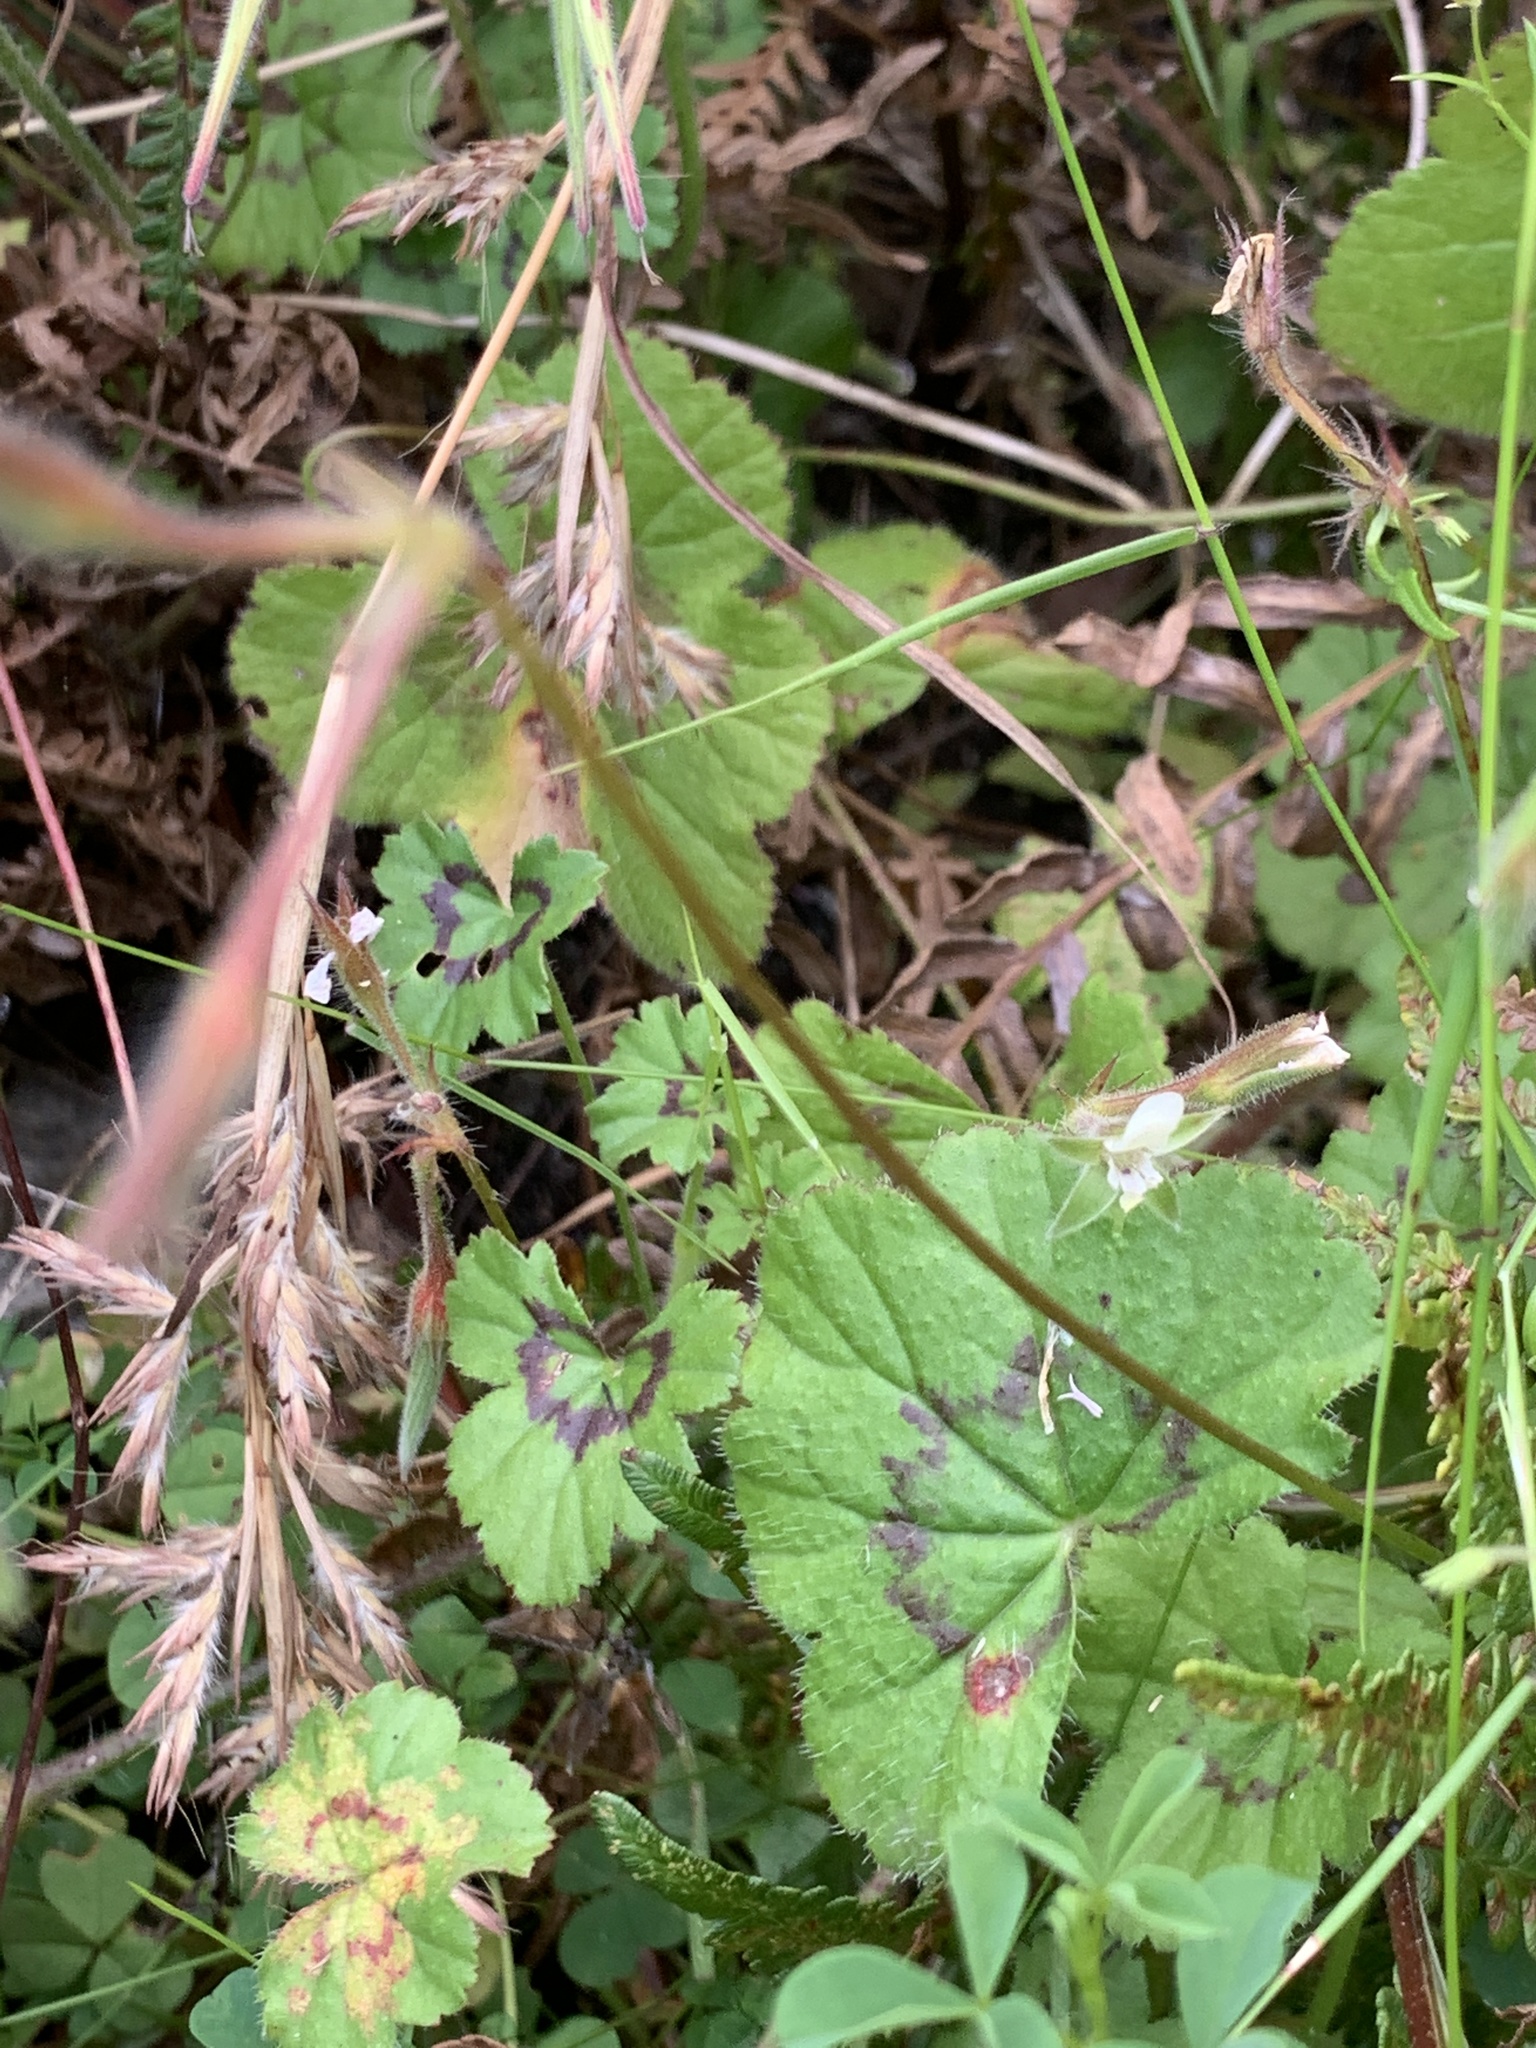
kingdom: Plantae
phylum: Tracheophyta
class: Magnoliopsida
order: Geraniales
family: Geraniaceae
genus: Pelargonium
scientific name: Pelargonium elongatum
